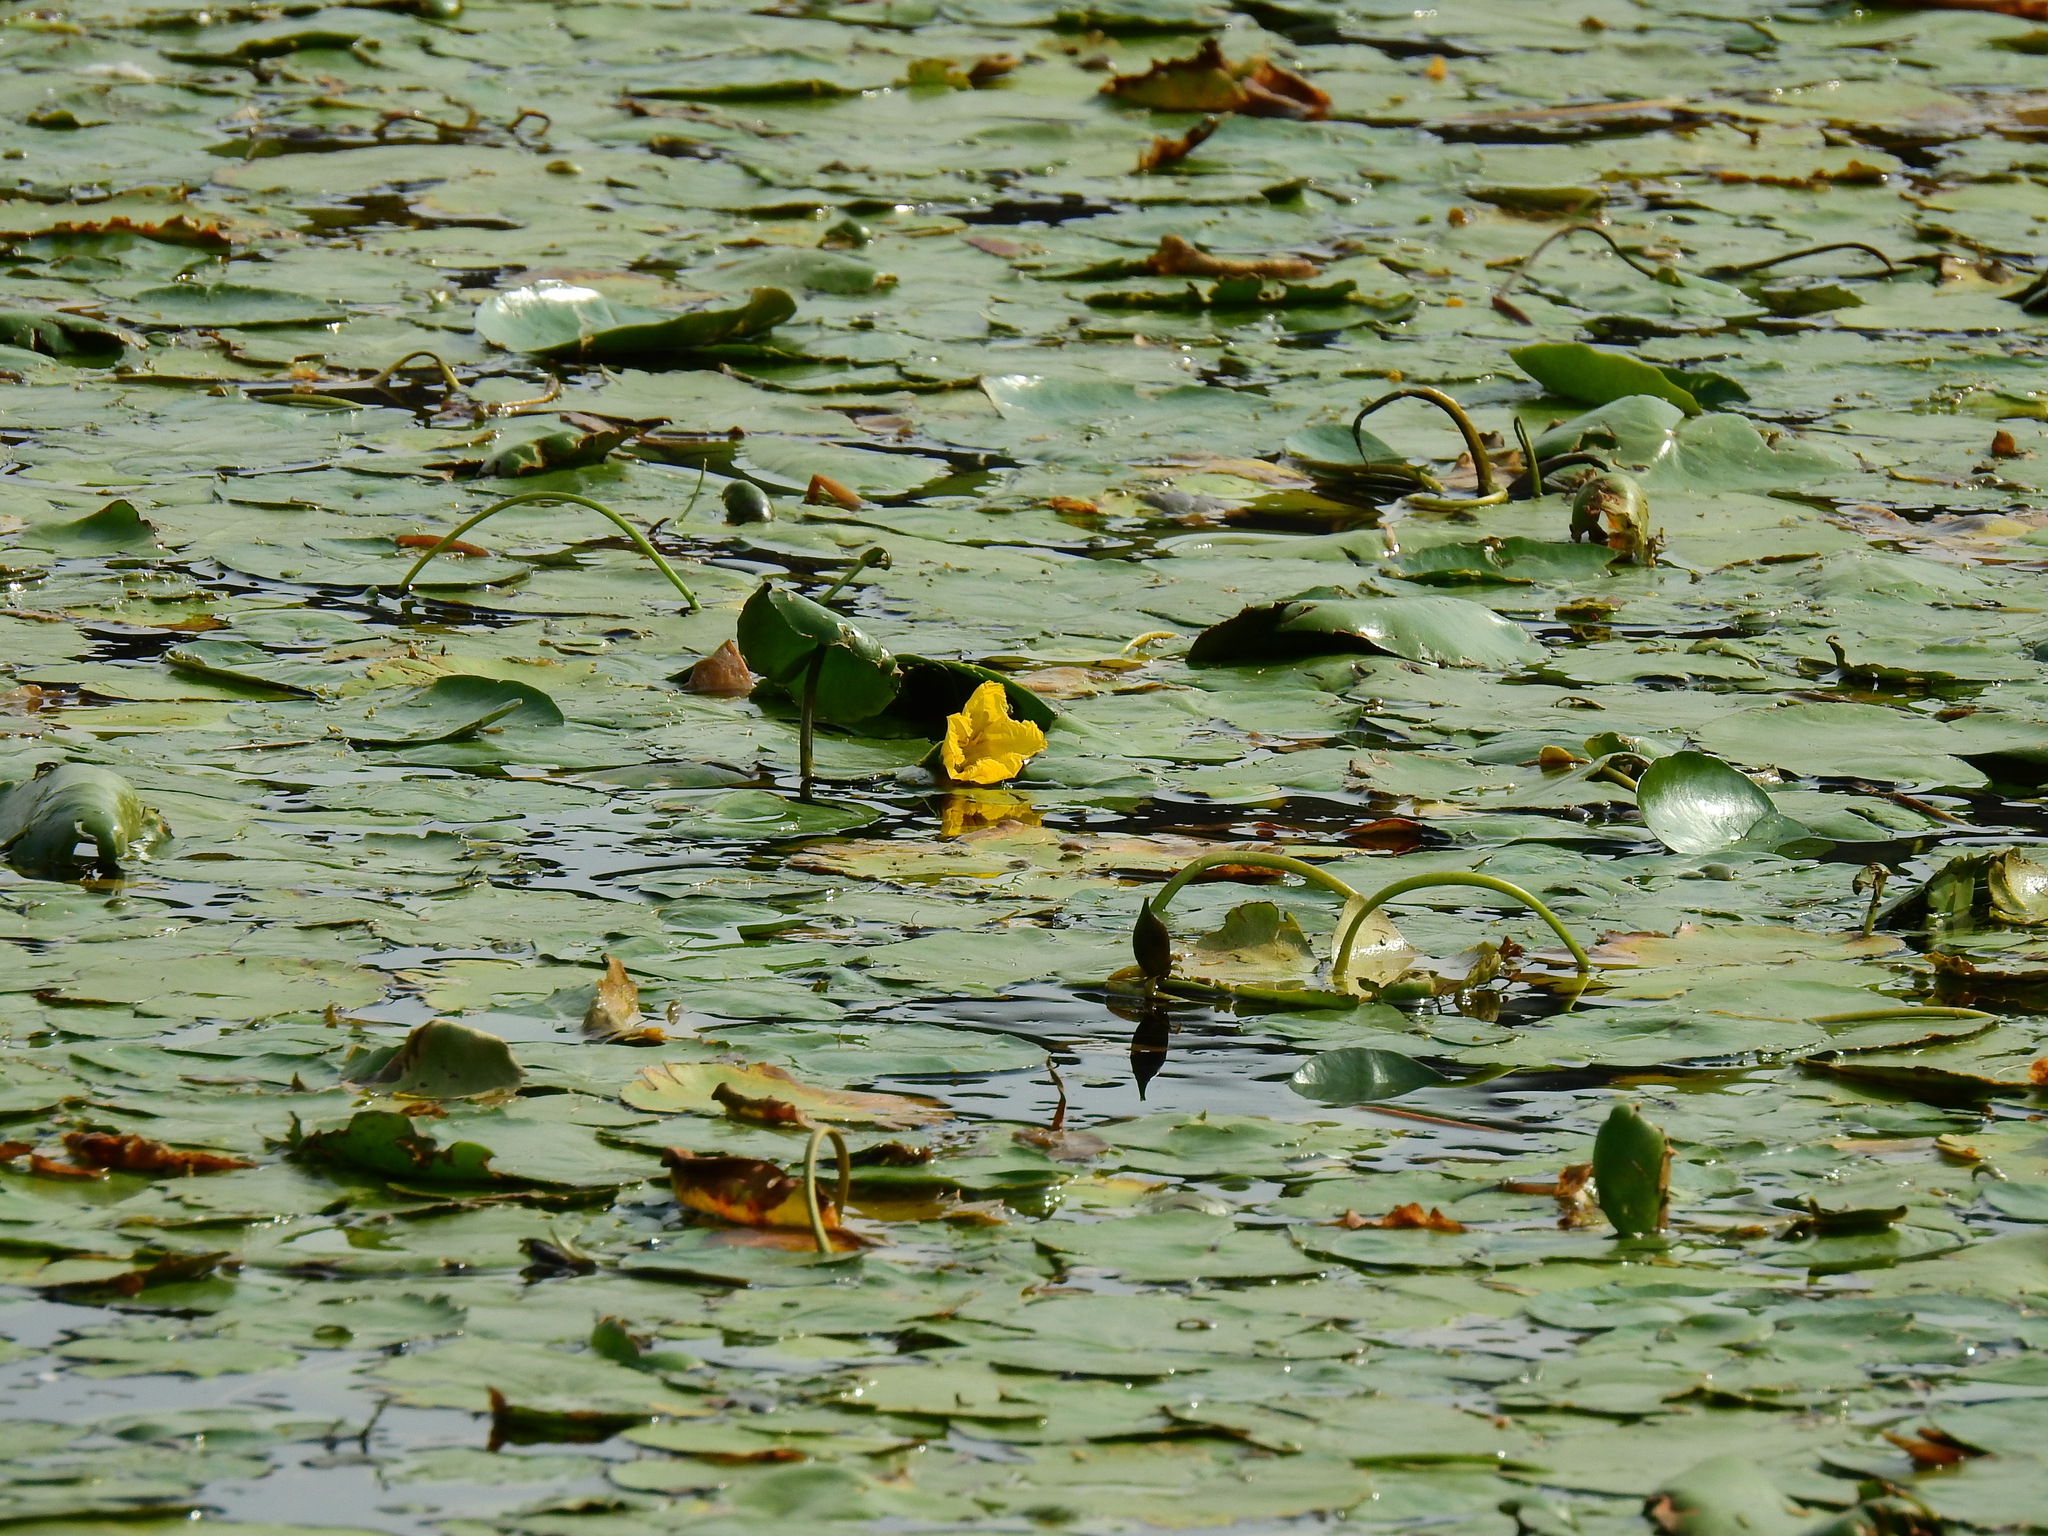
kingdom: Plantae
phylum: Tracheophyta
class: Magnoliopsida
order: Nymphaeales
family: Nymphaeaceae
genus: Nuphar
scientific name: Nuphar lutea
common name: Yellow water-lily
